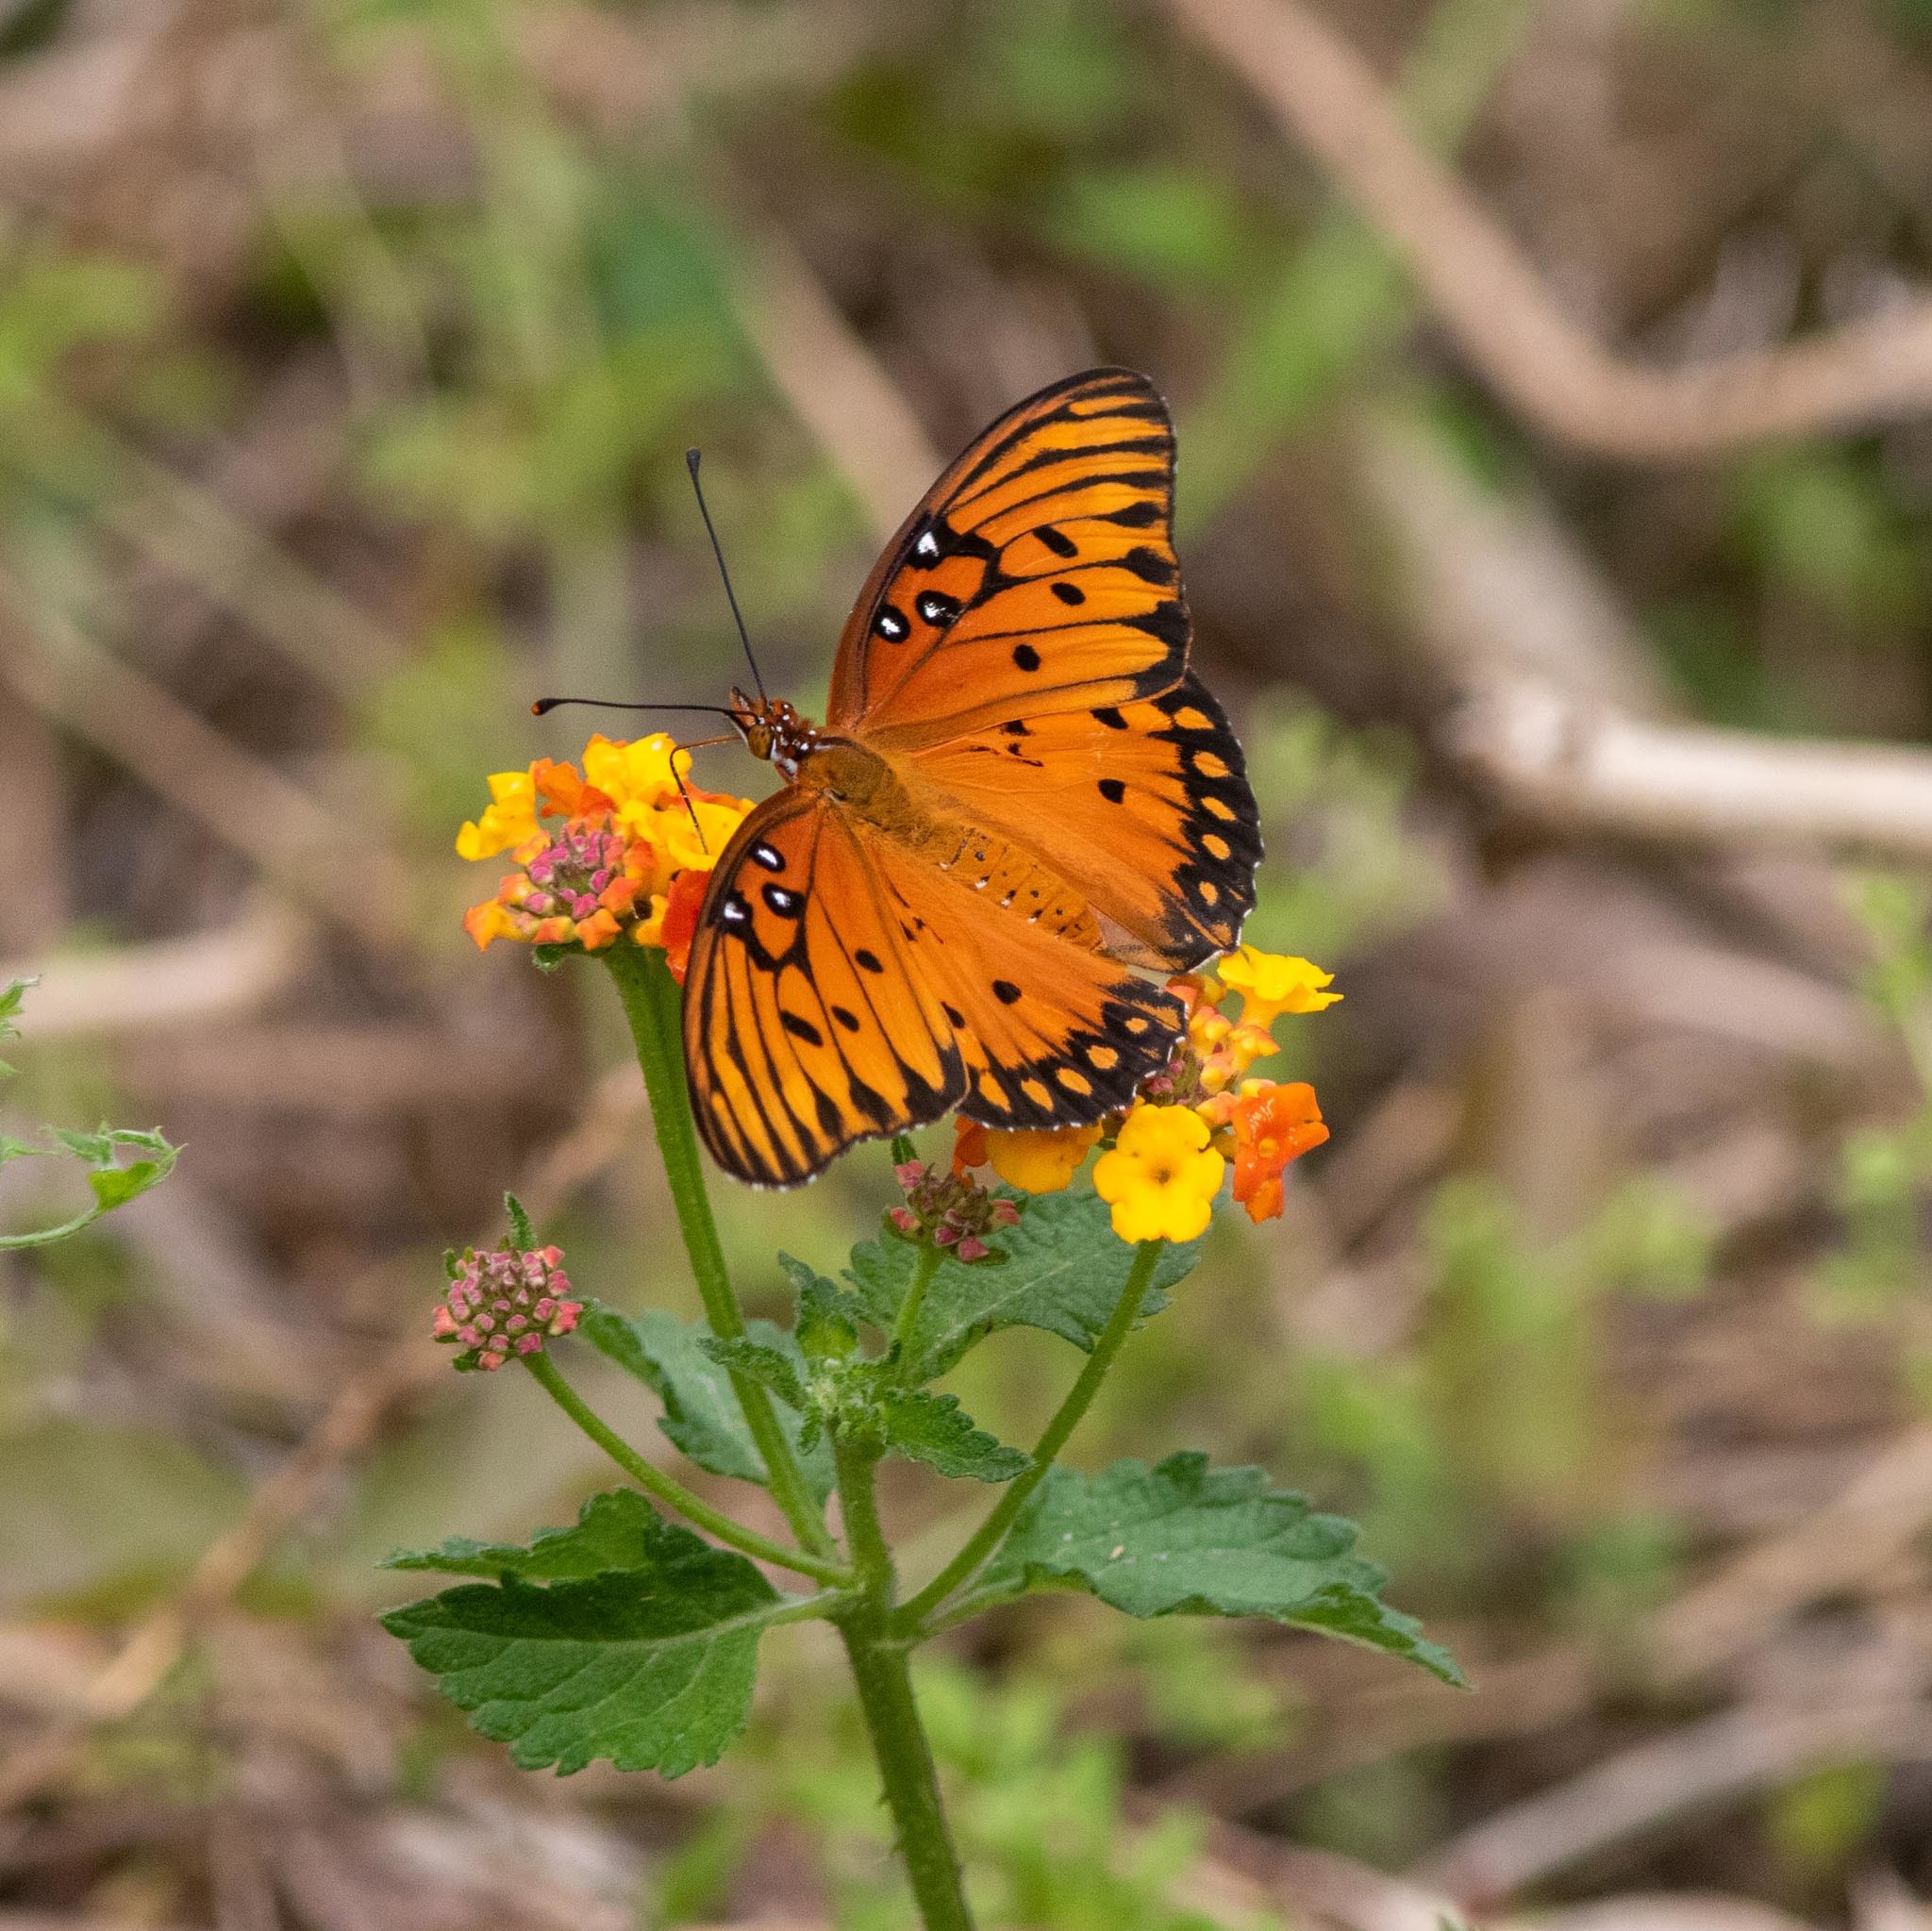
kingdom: Animalia
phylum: Arthropoda
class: Insecta
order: Lepidoptera
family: Nymphalidae
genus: Dione
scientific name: Dione vanillae
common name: Gulf fritillary
